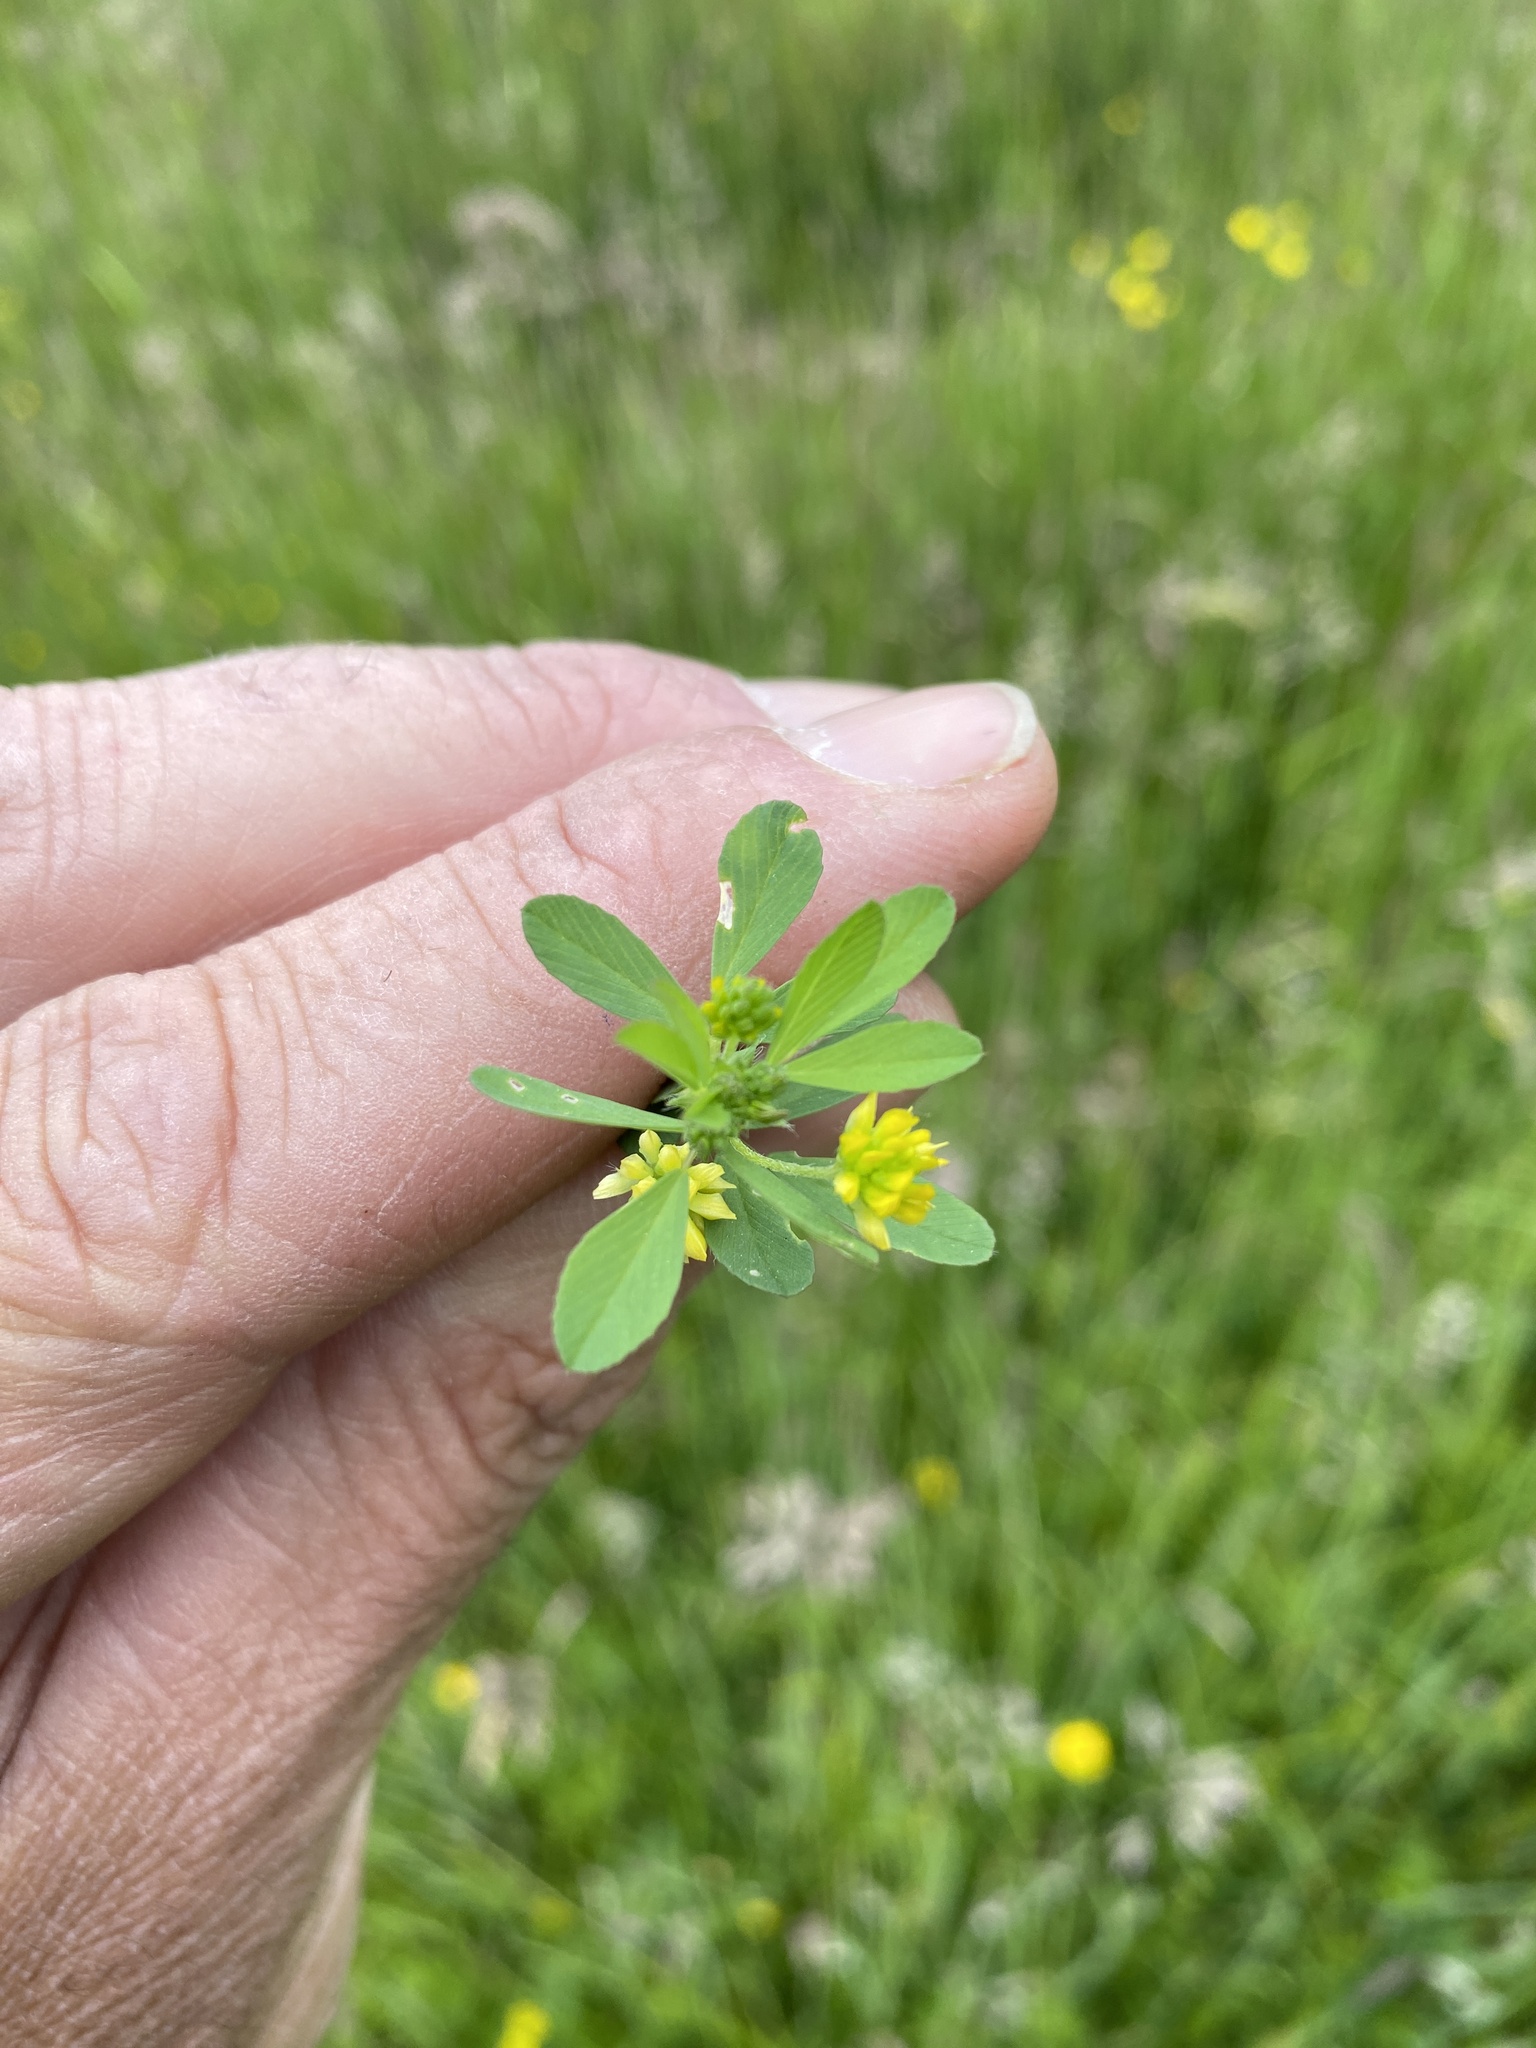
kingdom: Plantae
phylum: Tracheophyta
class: Magnoliopsida
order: Fabales
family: Fabaceae
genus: Trifolium
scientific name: Trifolium dubium
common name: Suckling clover
